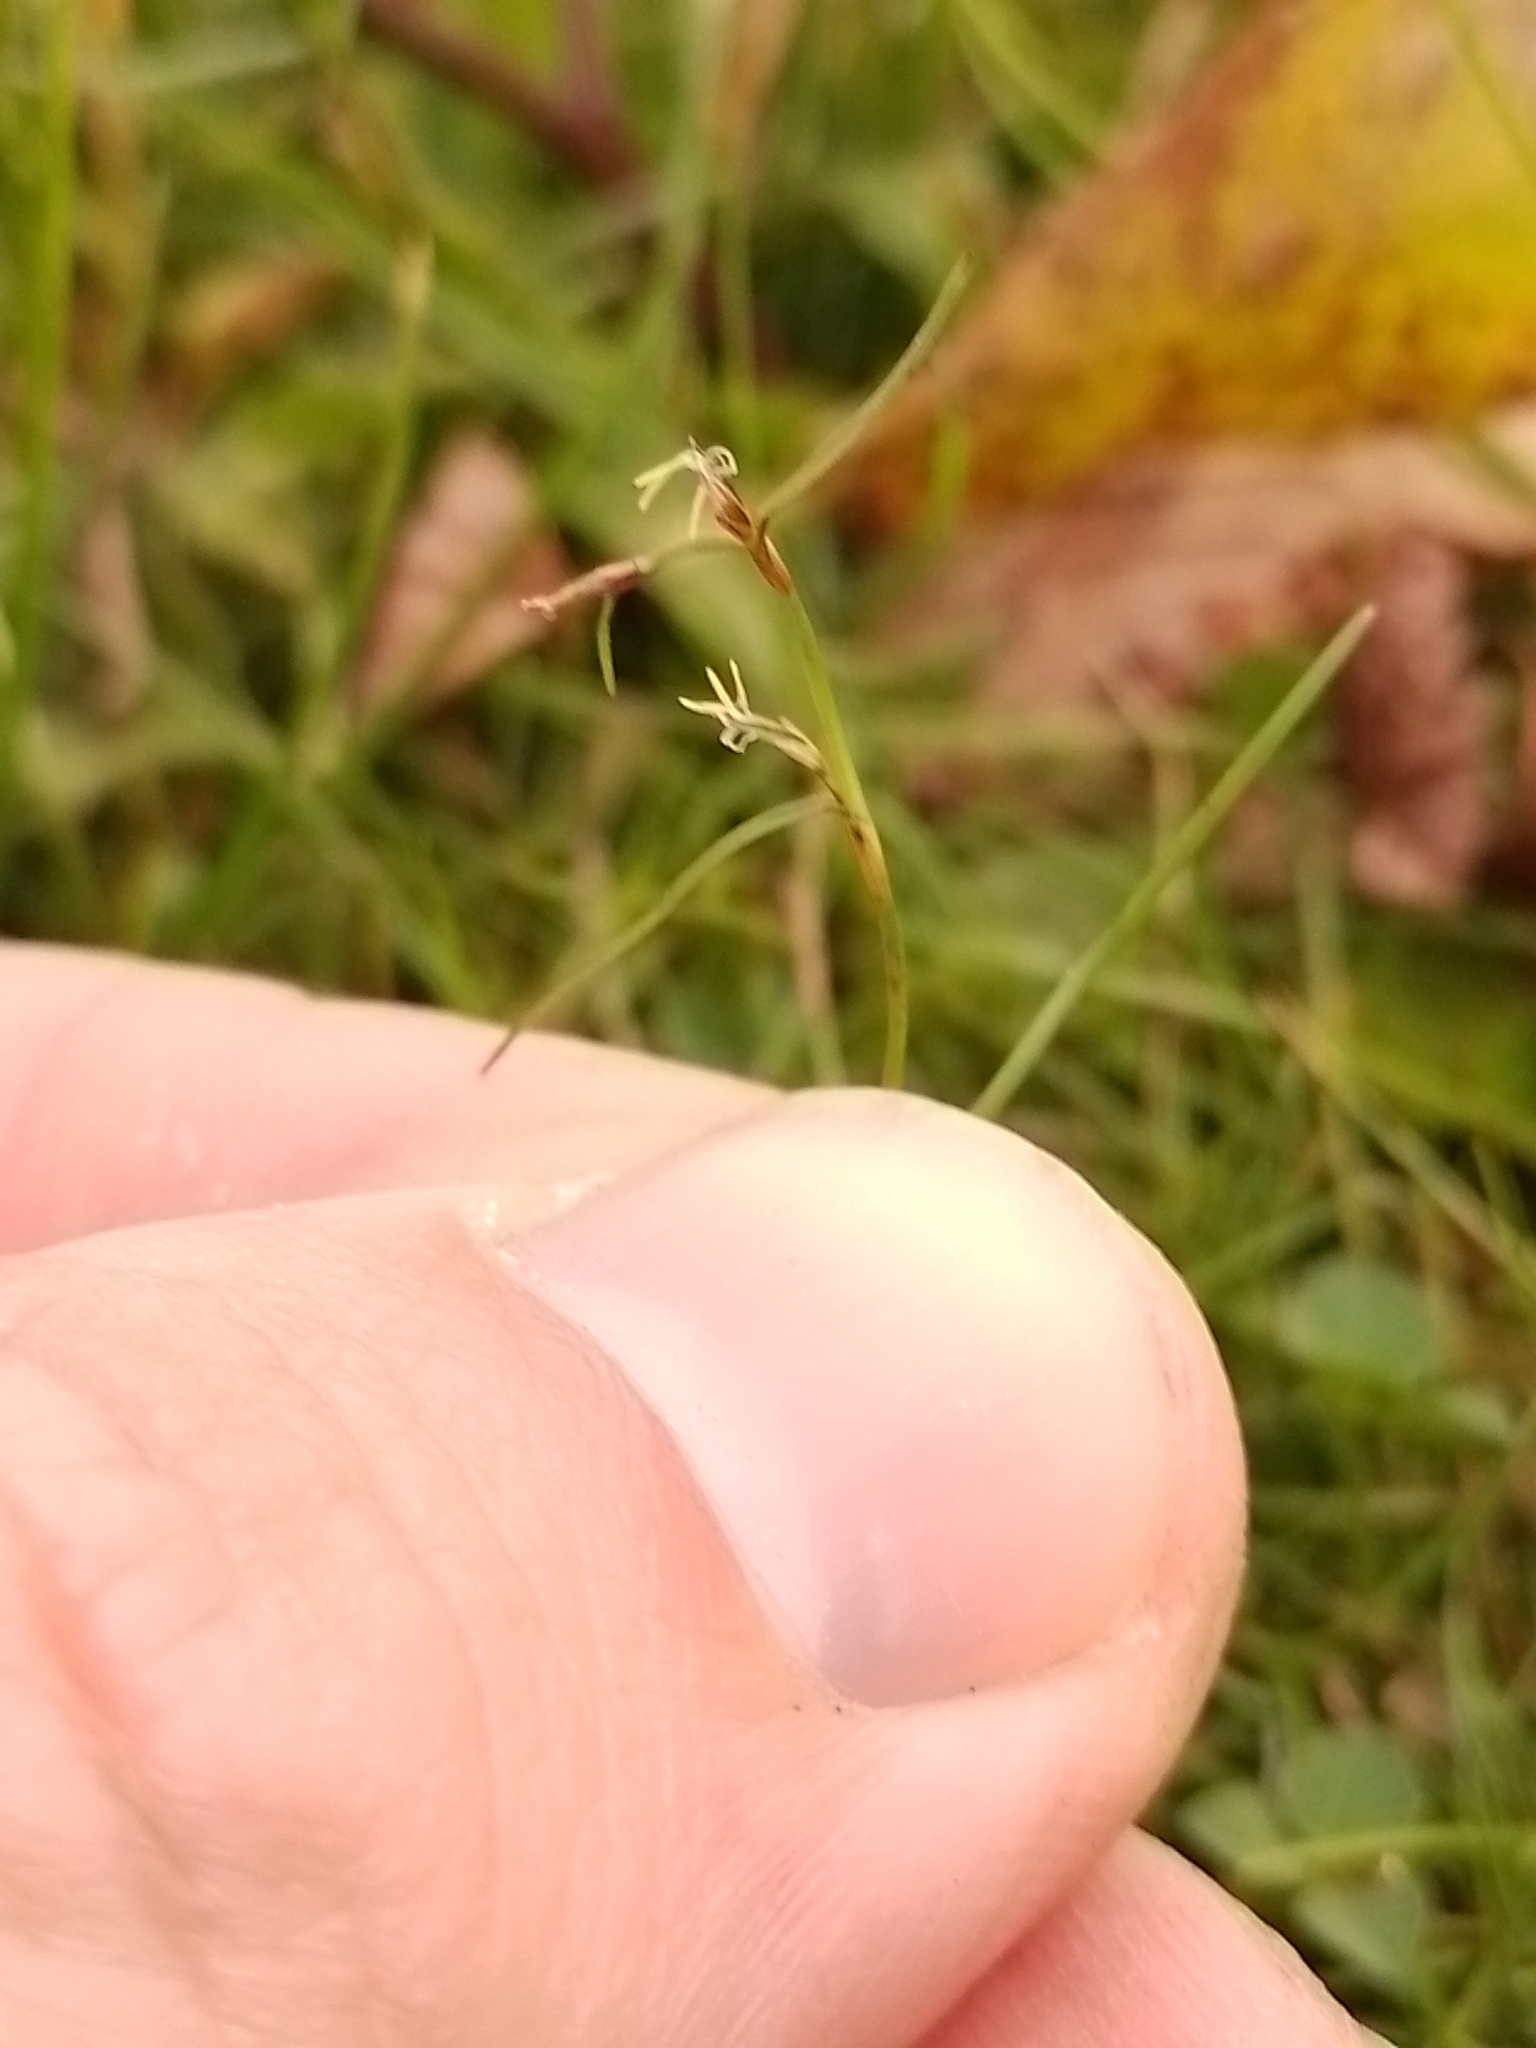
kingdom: Plantae
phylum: Tracheophyta
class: Liliopsida
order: Poales
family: Cyperaceae
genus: Schoenus
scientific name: Schoenus maschalinus
